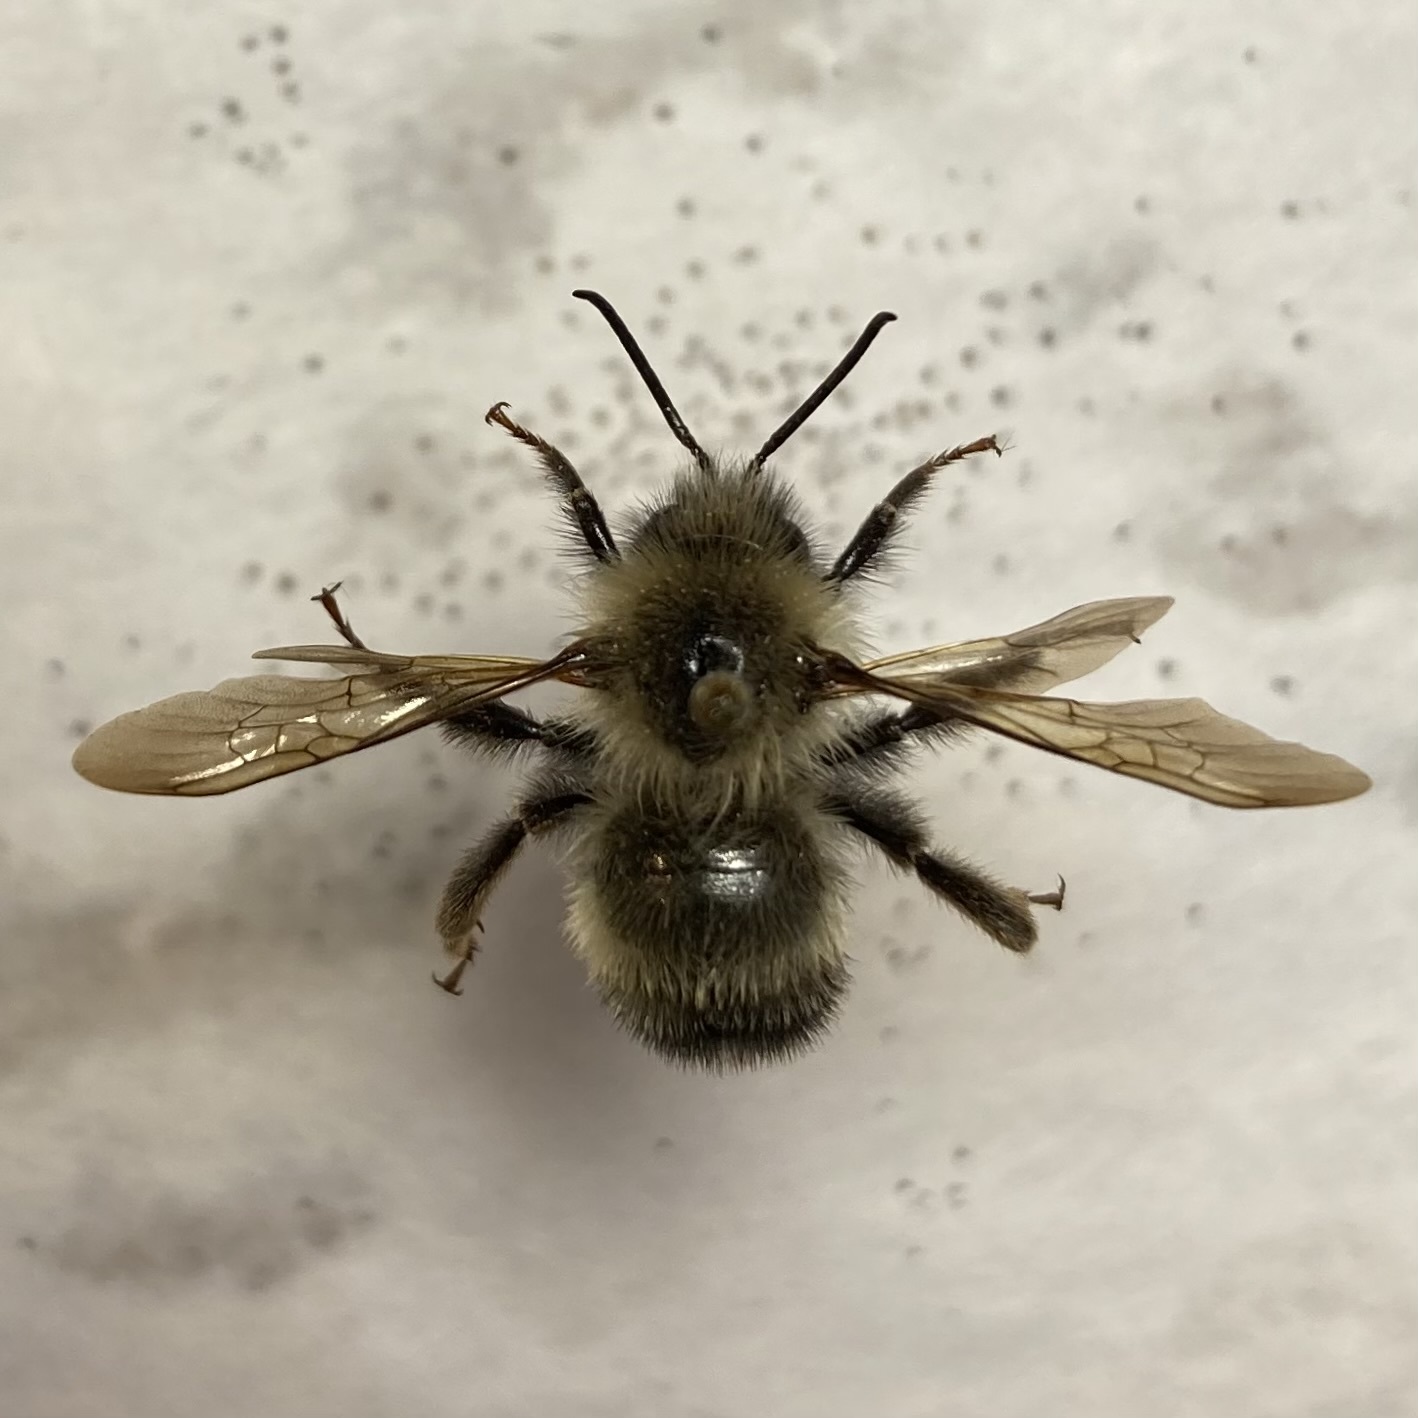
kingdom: Animalia
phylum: Arthropoda
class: Insecta
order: Hymenoptera
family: Apidae
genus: Bombus
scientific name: Bombus citrinus
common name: Lemon cuckoo bumble bee
